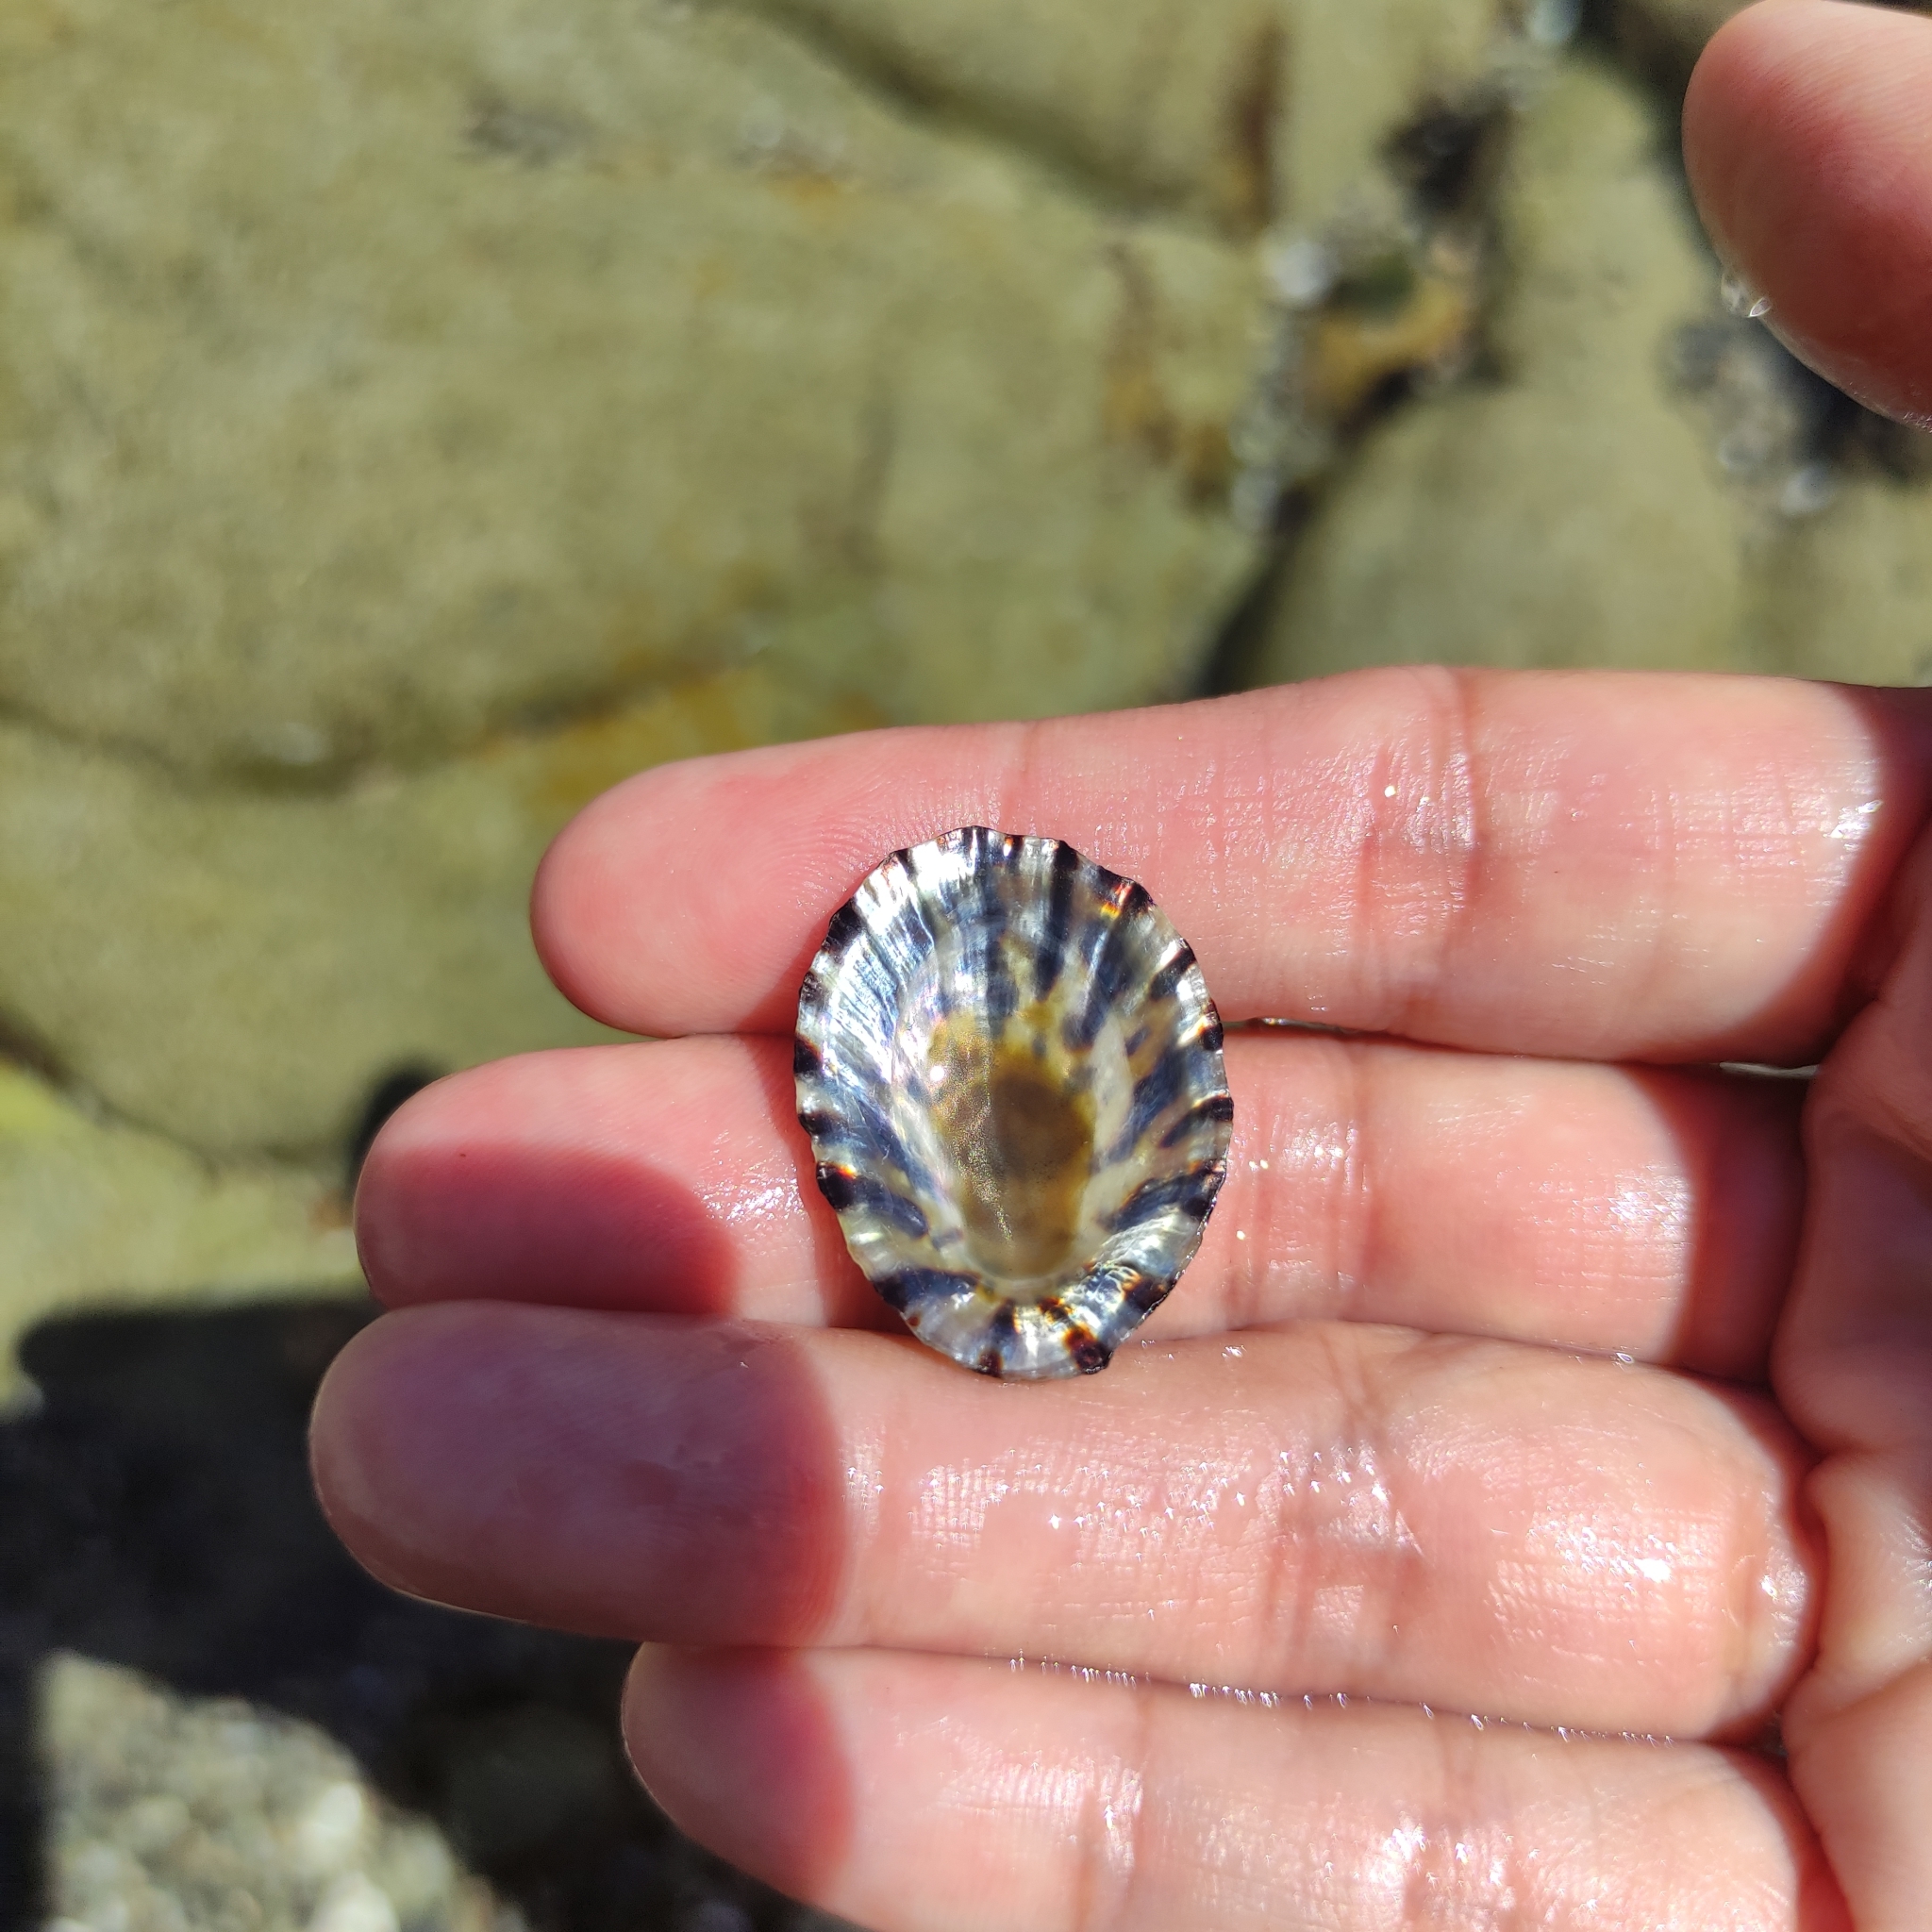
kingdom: Animalia
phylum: Mollusca
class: Gastropoda
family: Nacellidae
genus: Cellana
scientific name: Cellana radians
